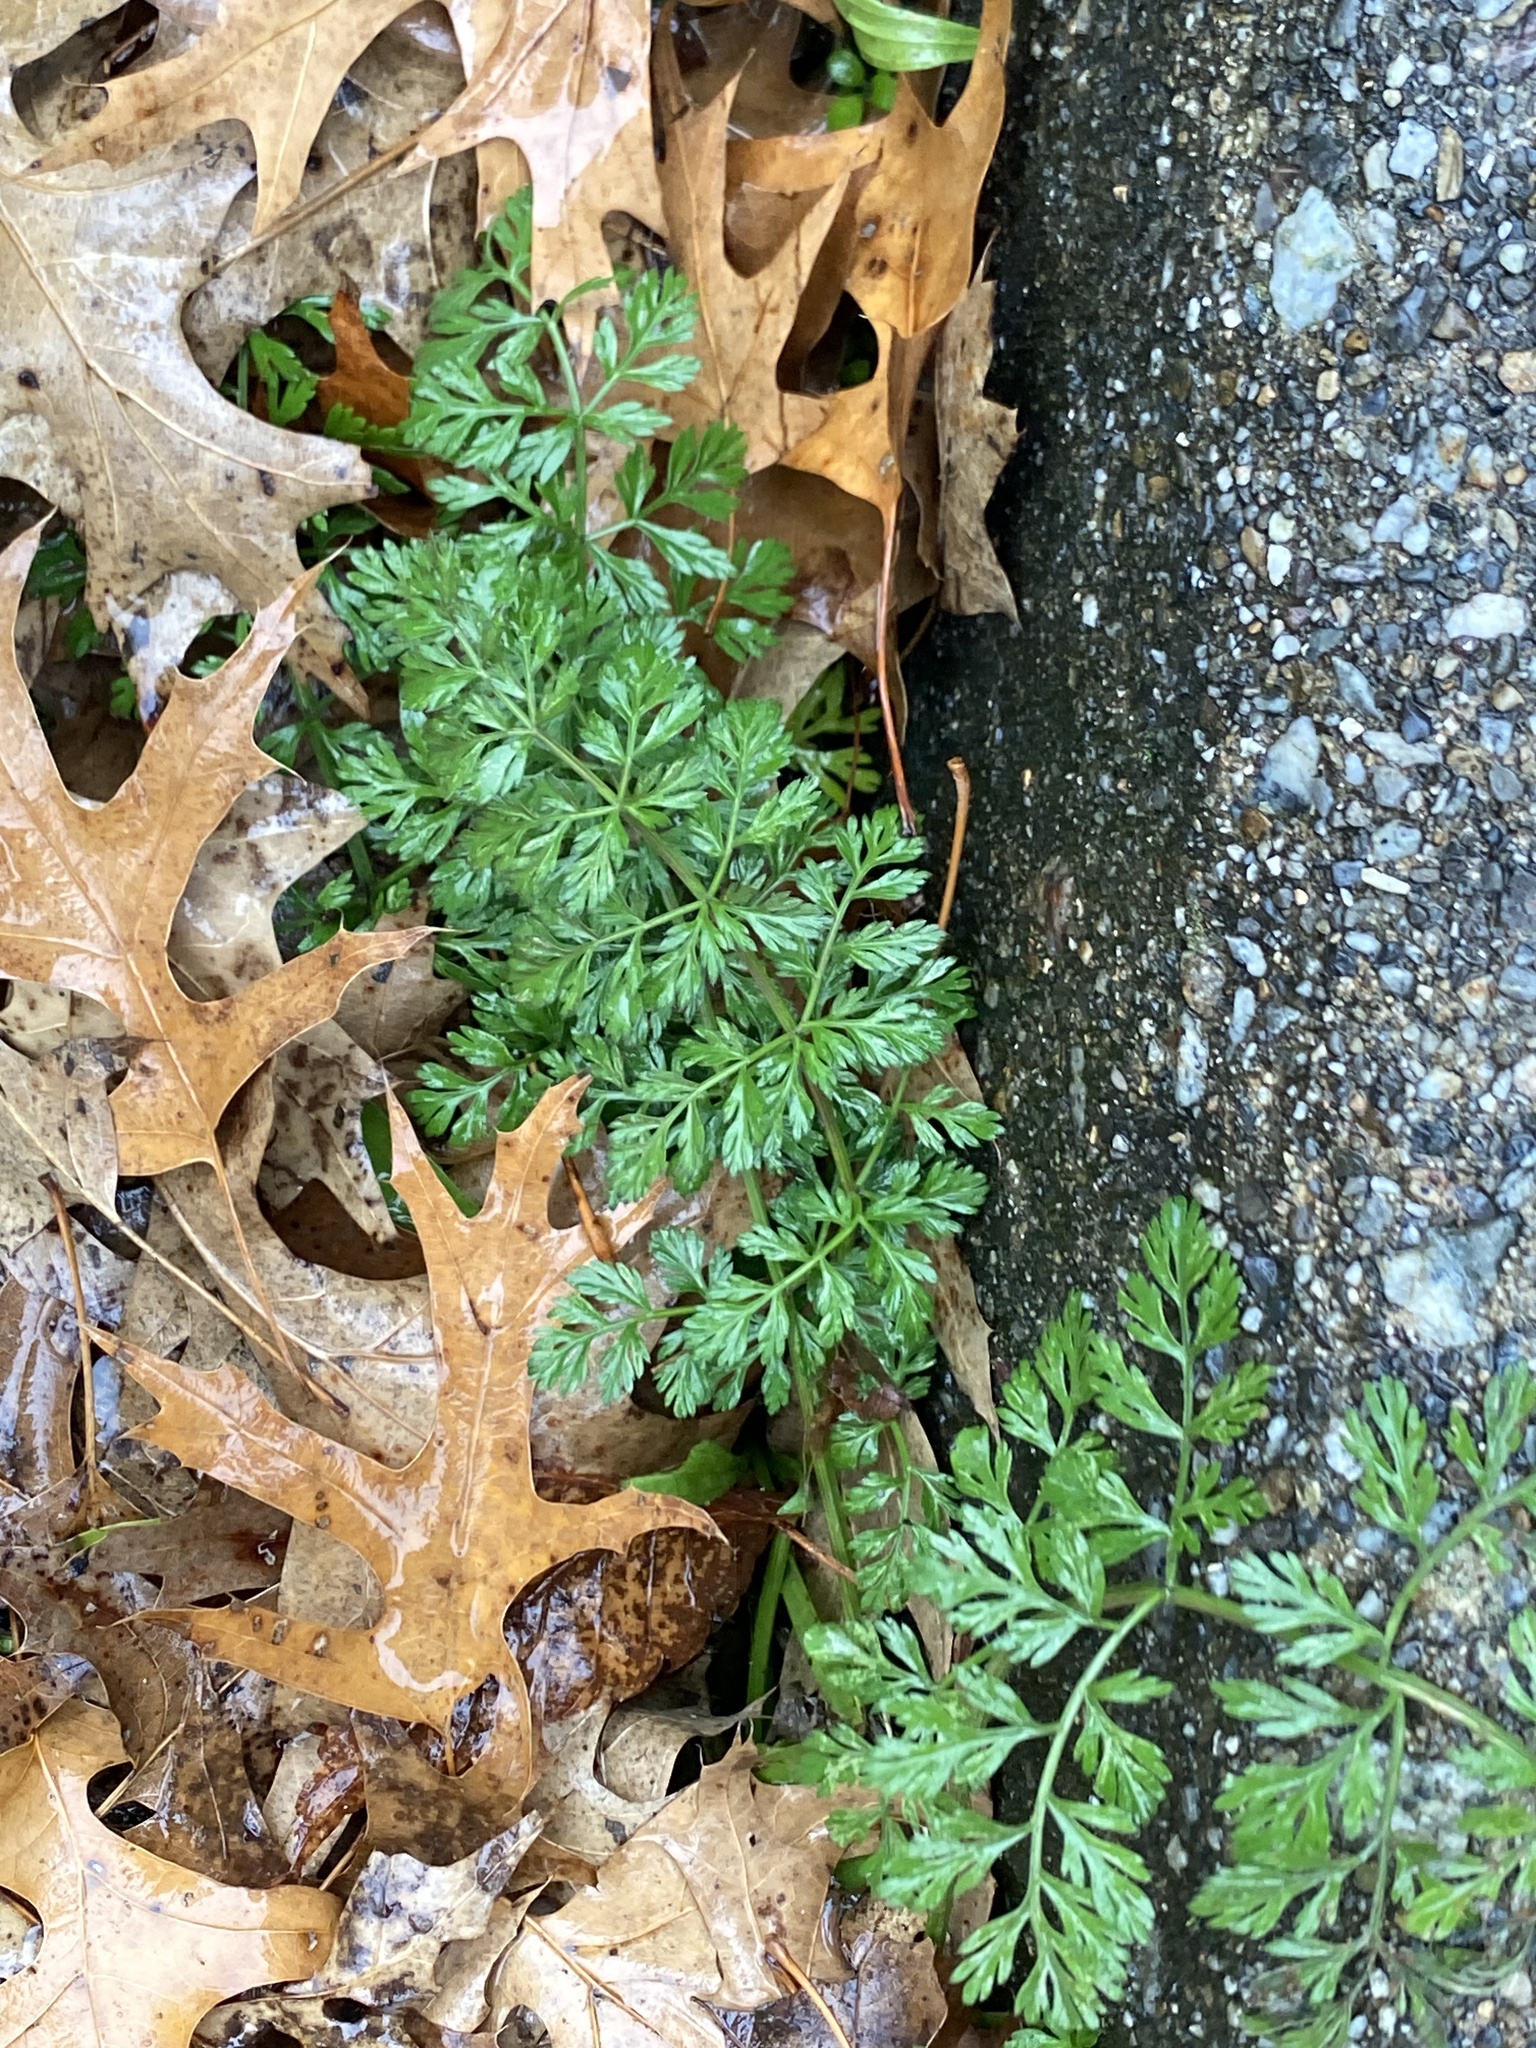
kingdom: Plantae
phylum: Tracheophyta
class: Magnoliopsida
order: Apiales
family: Apiaceae
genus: Daucus
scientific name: Daucus carota
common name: Wild carrot
